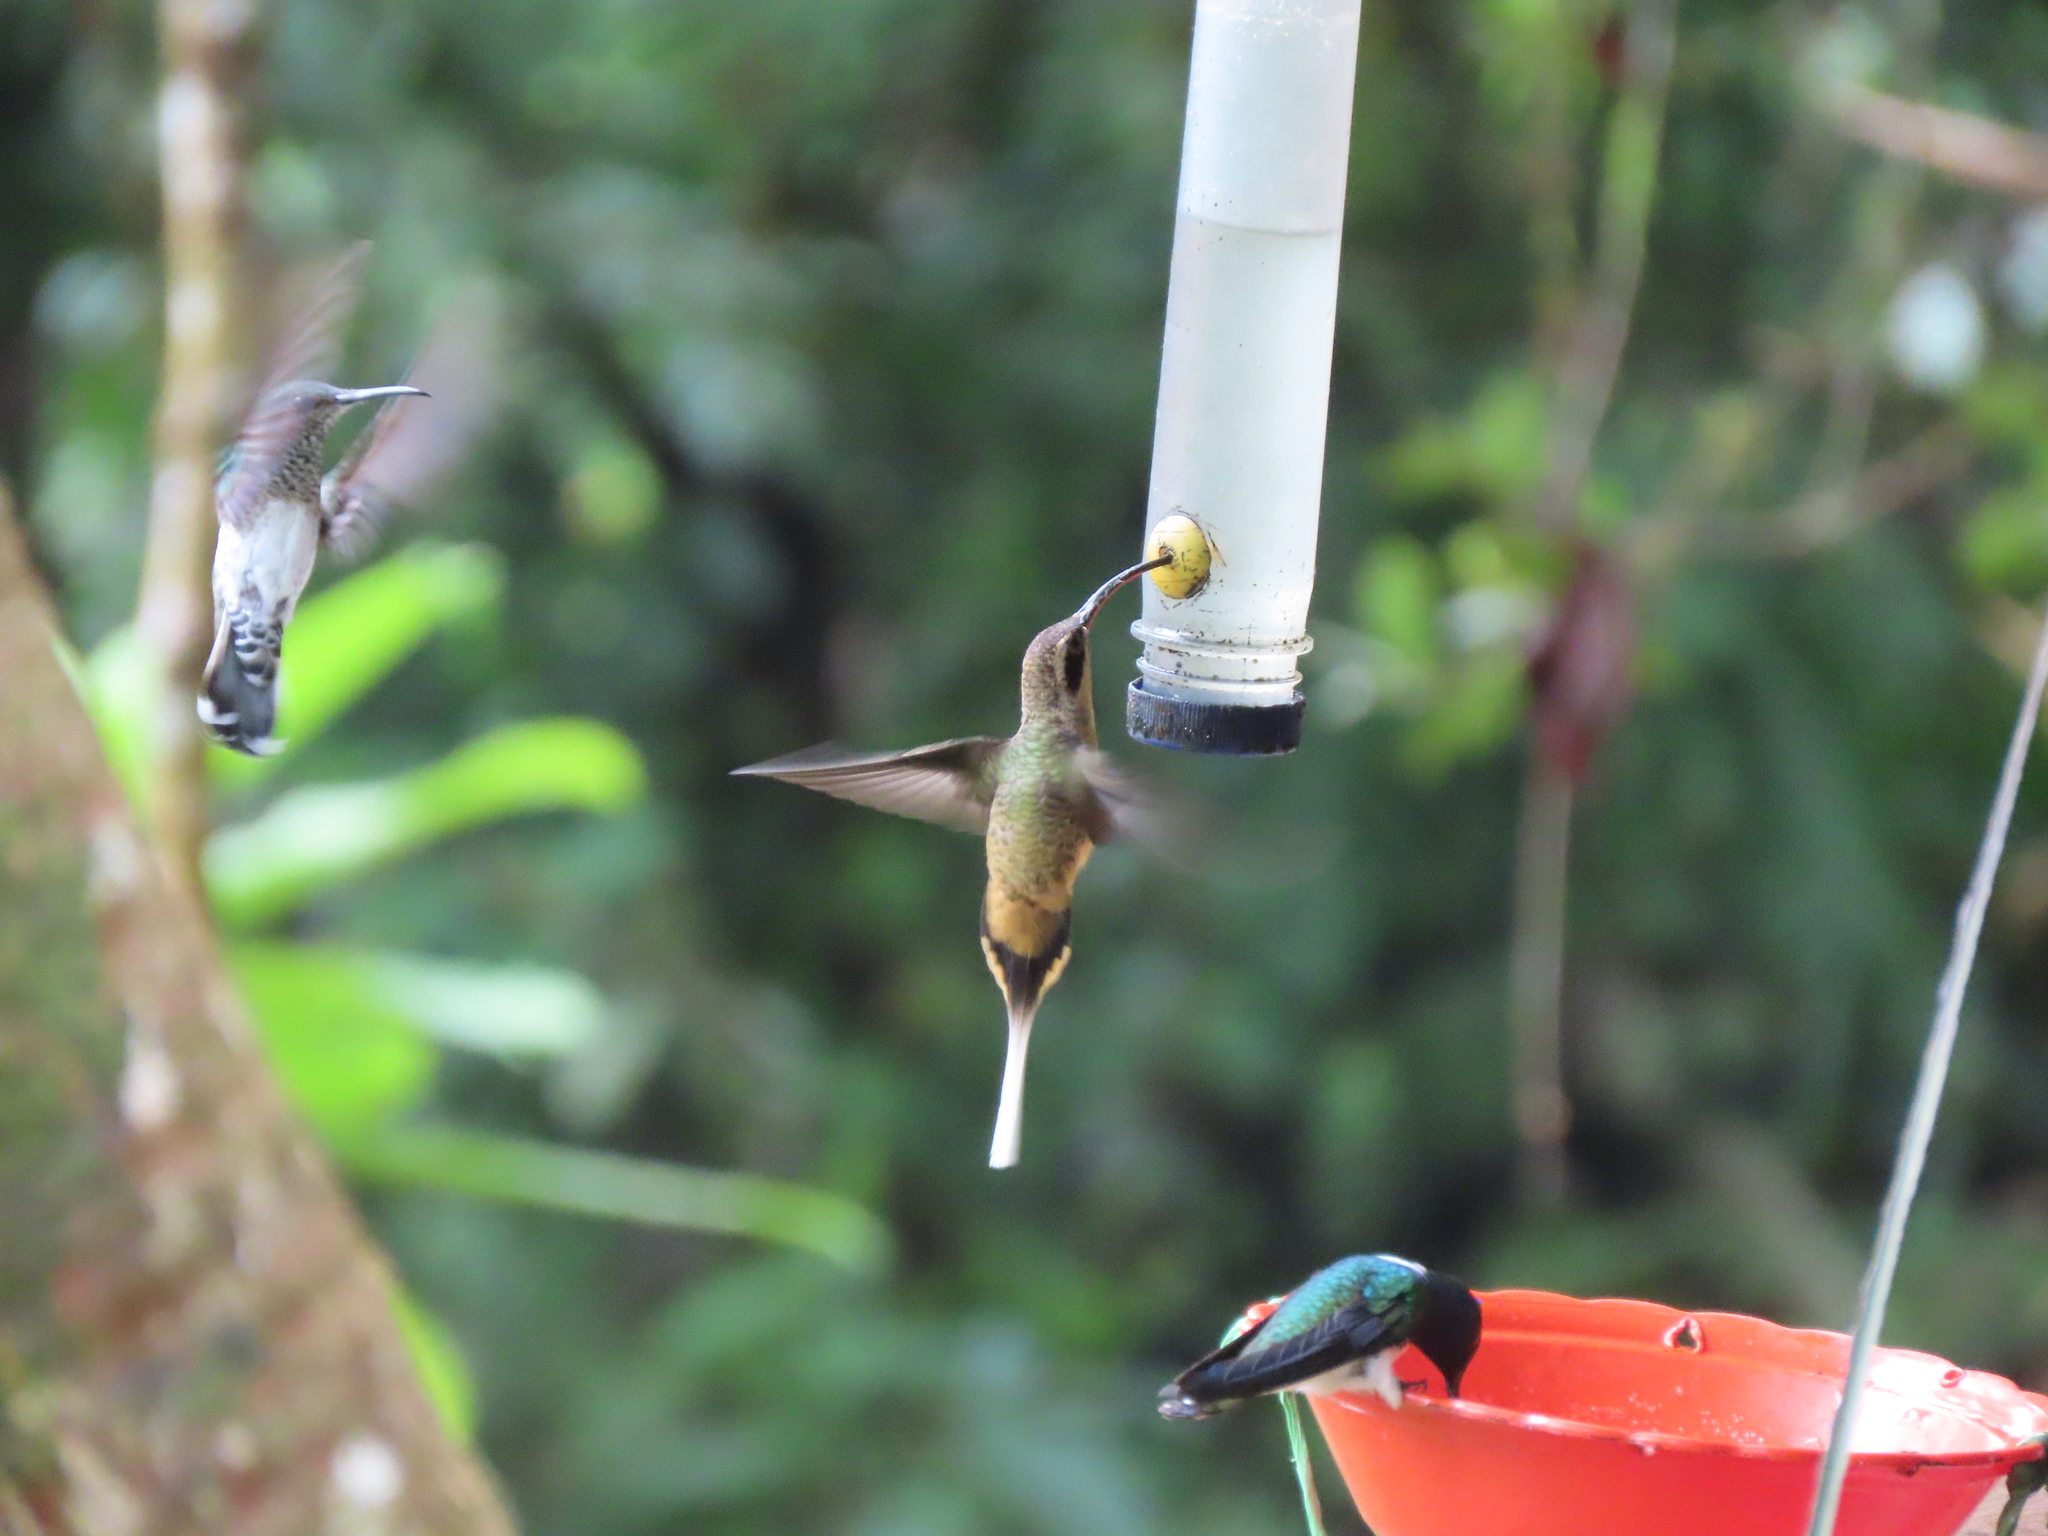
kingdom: Animalia
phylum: Chordata
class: Aves
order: Apodiformes
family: Trochilidae
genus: Phaethornis
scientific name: Phaethornis syrmatophorus
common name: Tawny-bellied hermit
